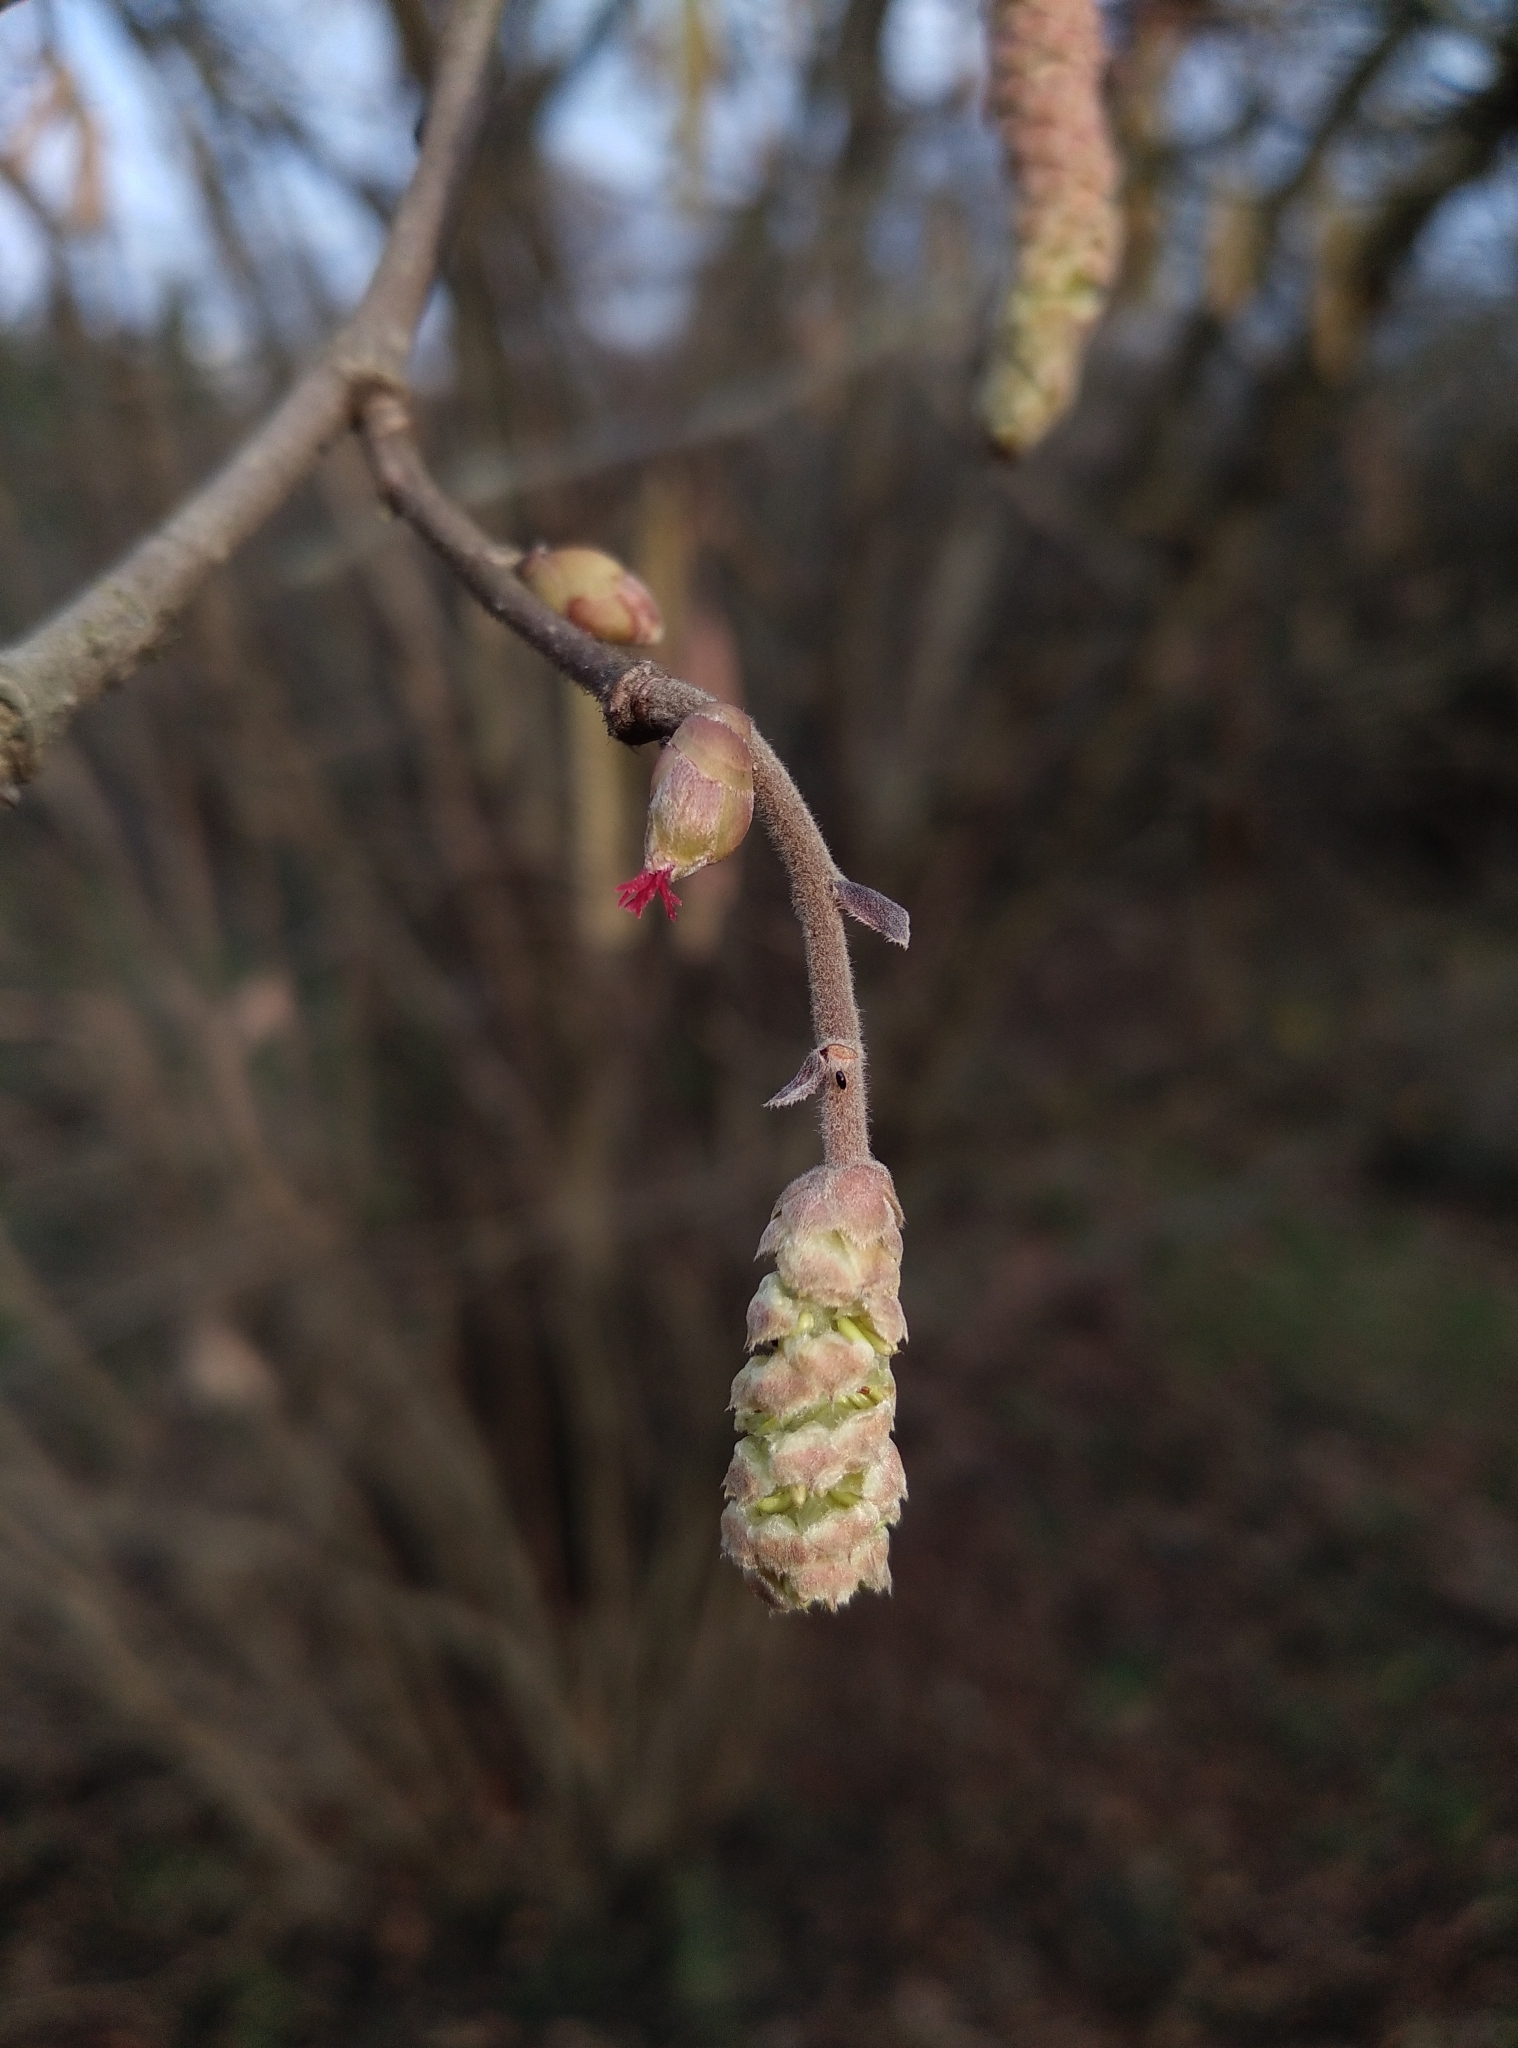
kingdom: Plantae
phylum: Tracheophyta
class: Magnoliopsida
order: Fagales
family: Betulaceae
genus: Corylus
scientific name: Corylus avellana
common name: European hazel
